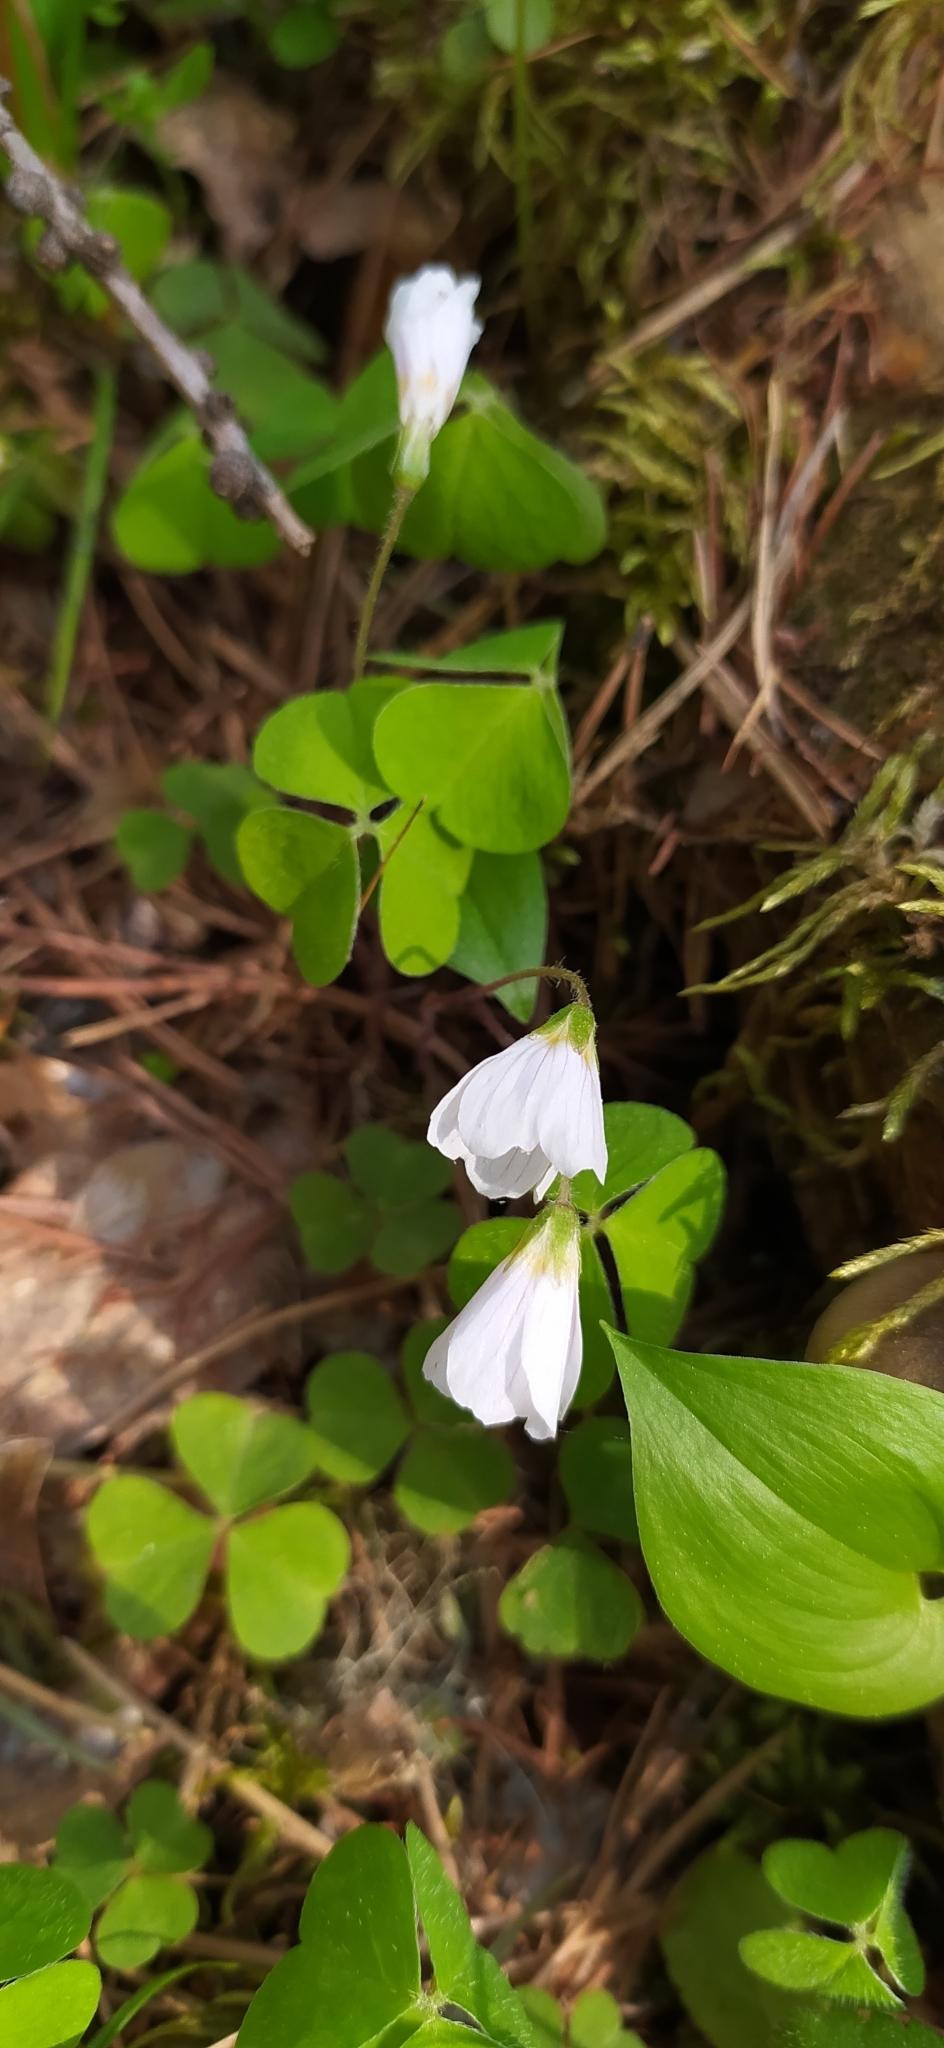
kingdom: Plantae
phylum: Tracheophyta
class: Magnoliopsida
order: Oxalidales
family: Oxalidaceae
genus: Oxalis
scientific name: Oxalis acetosella
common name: Wood-sorrel
